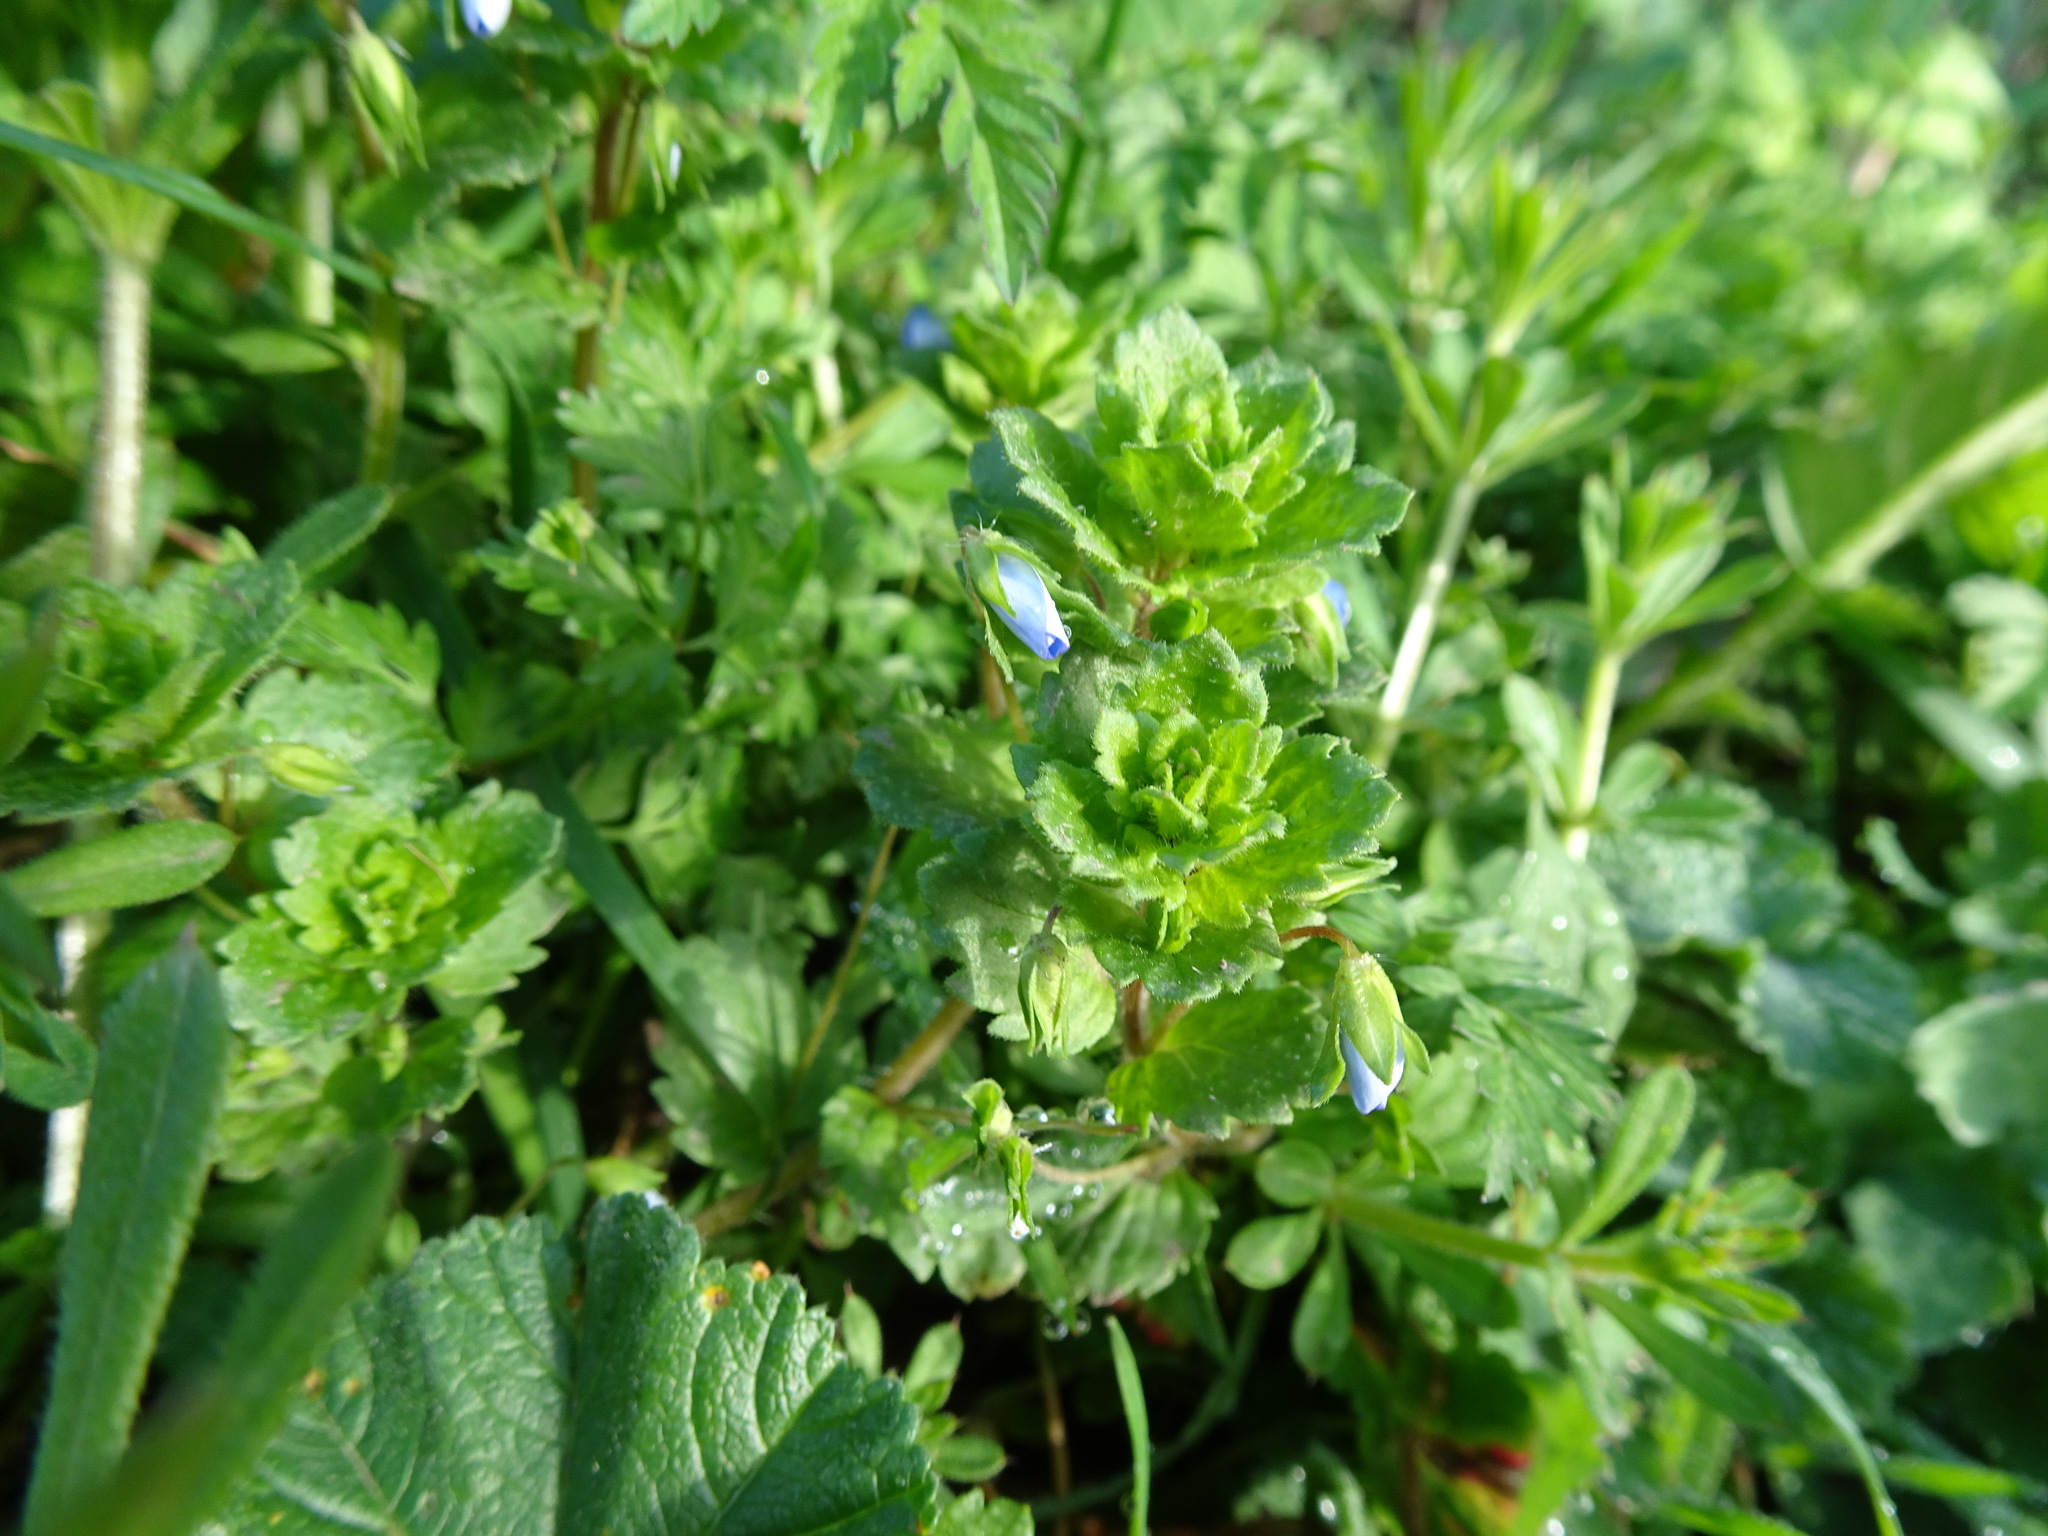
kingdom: Plantae
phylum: Tracheophyta
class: Magnoliopsida
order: Lamiales
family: Plantaginaceae
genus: Veronica
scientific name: Veronica persica
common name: Common field-speedwell
